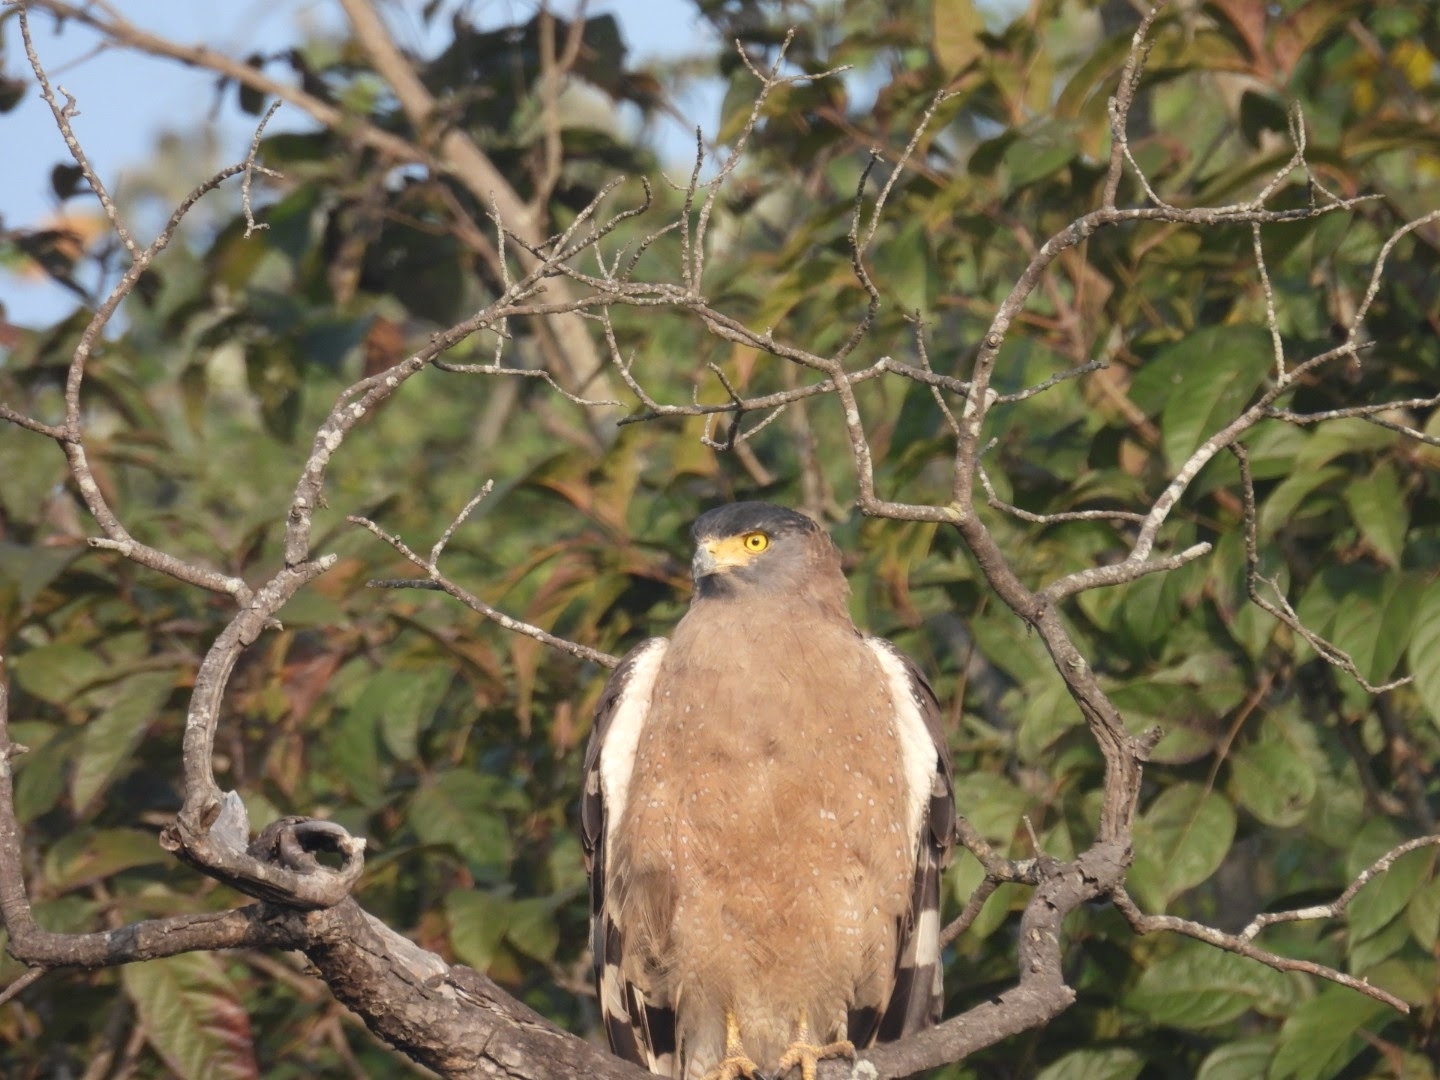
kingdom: Animalia
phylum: Chordata
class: Aves
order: Accipitriformes
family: Accipitridae
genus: Spilornis
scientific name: Spilornis cheela
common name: Crested serpent eagle
